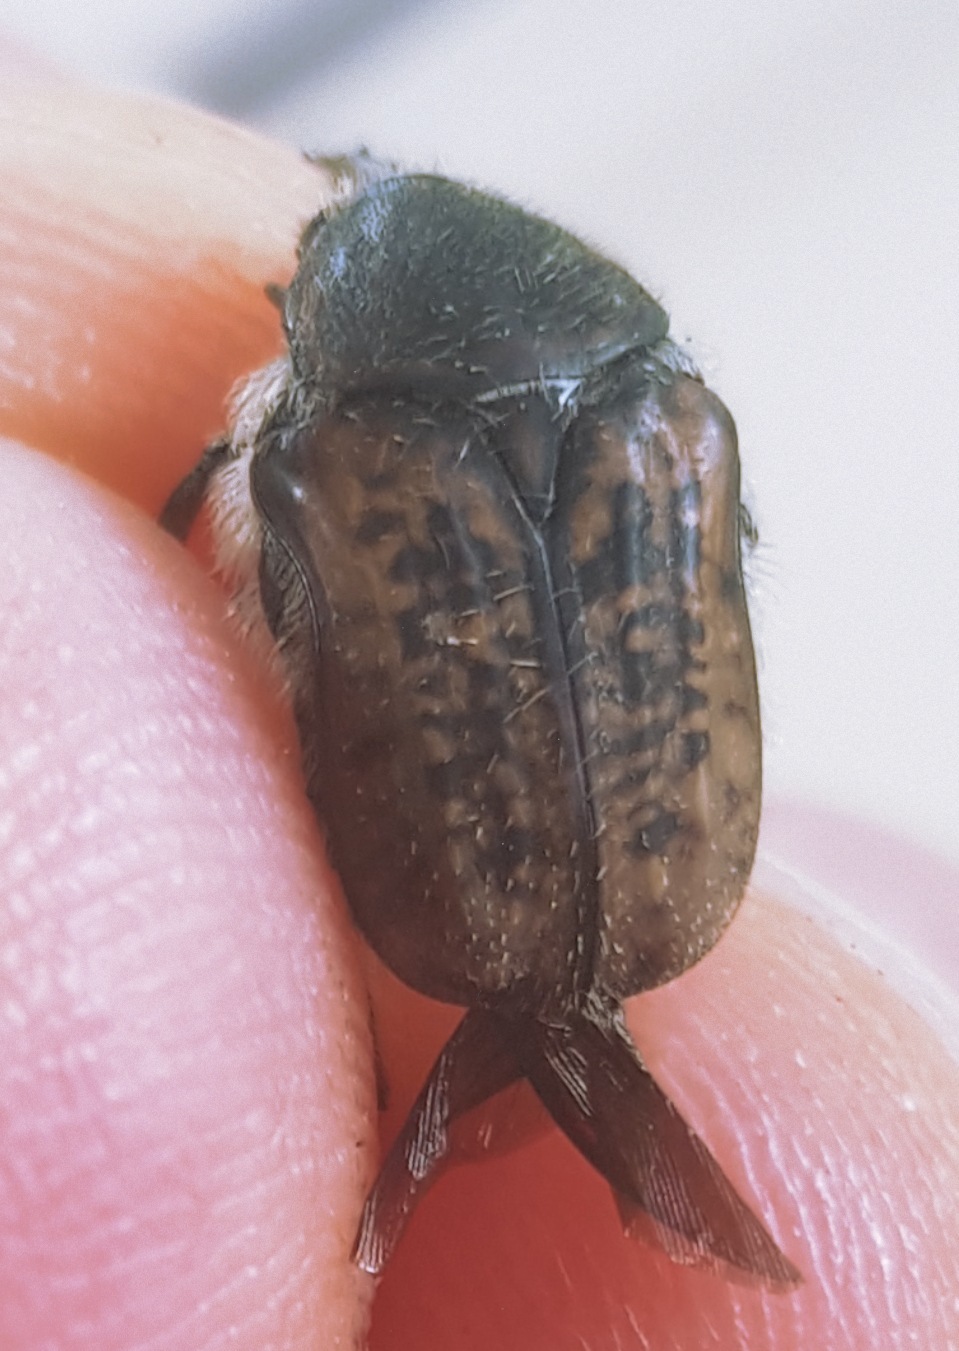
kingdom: Animalia
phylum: Arthropoda
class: Insecta
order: Coleoptera
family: Scarabaeidae
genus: Euphoria
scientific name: Euphoria vestita
